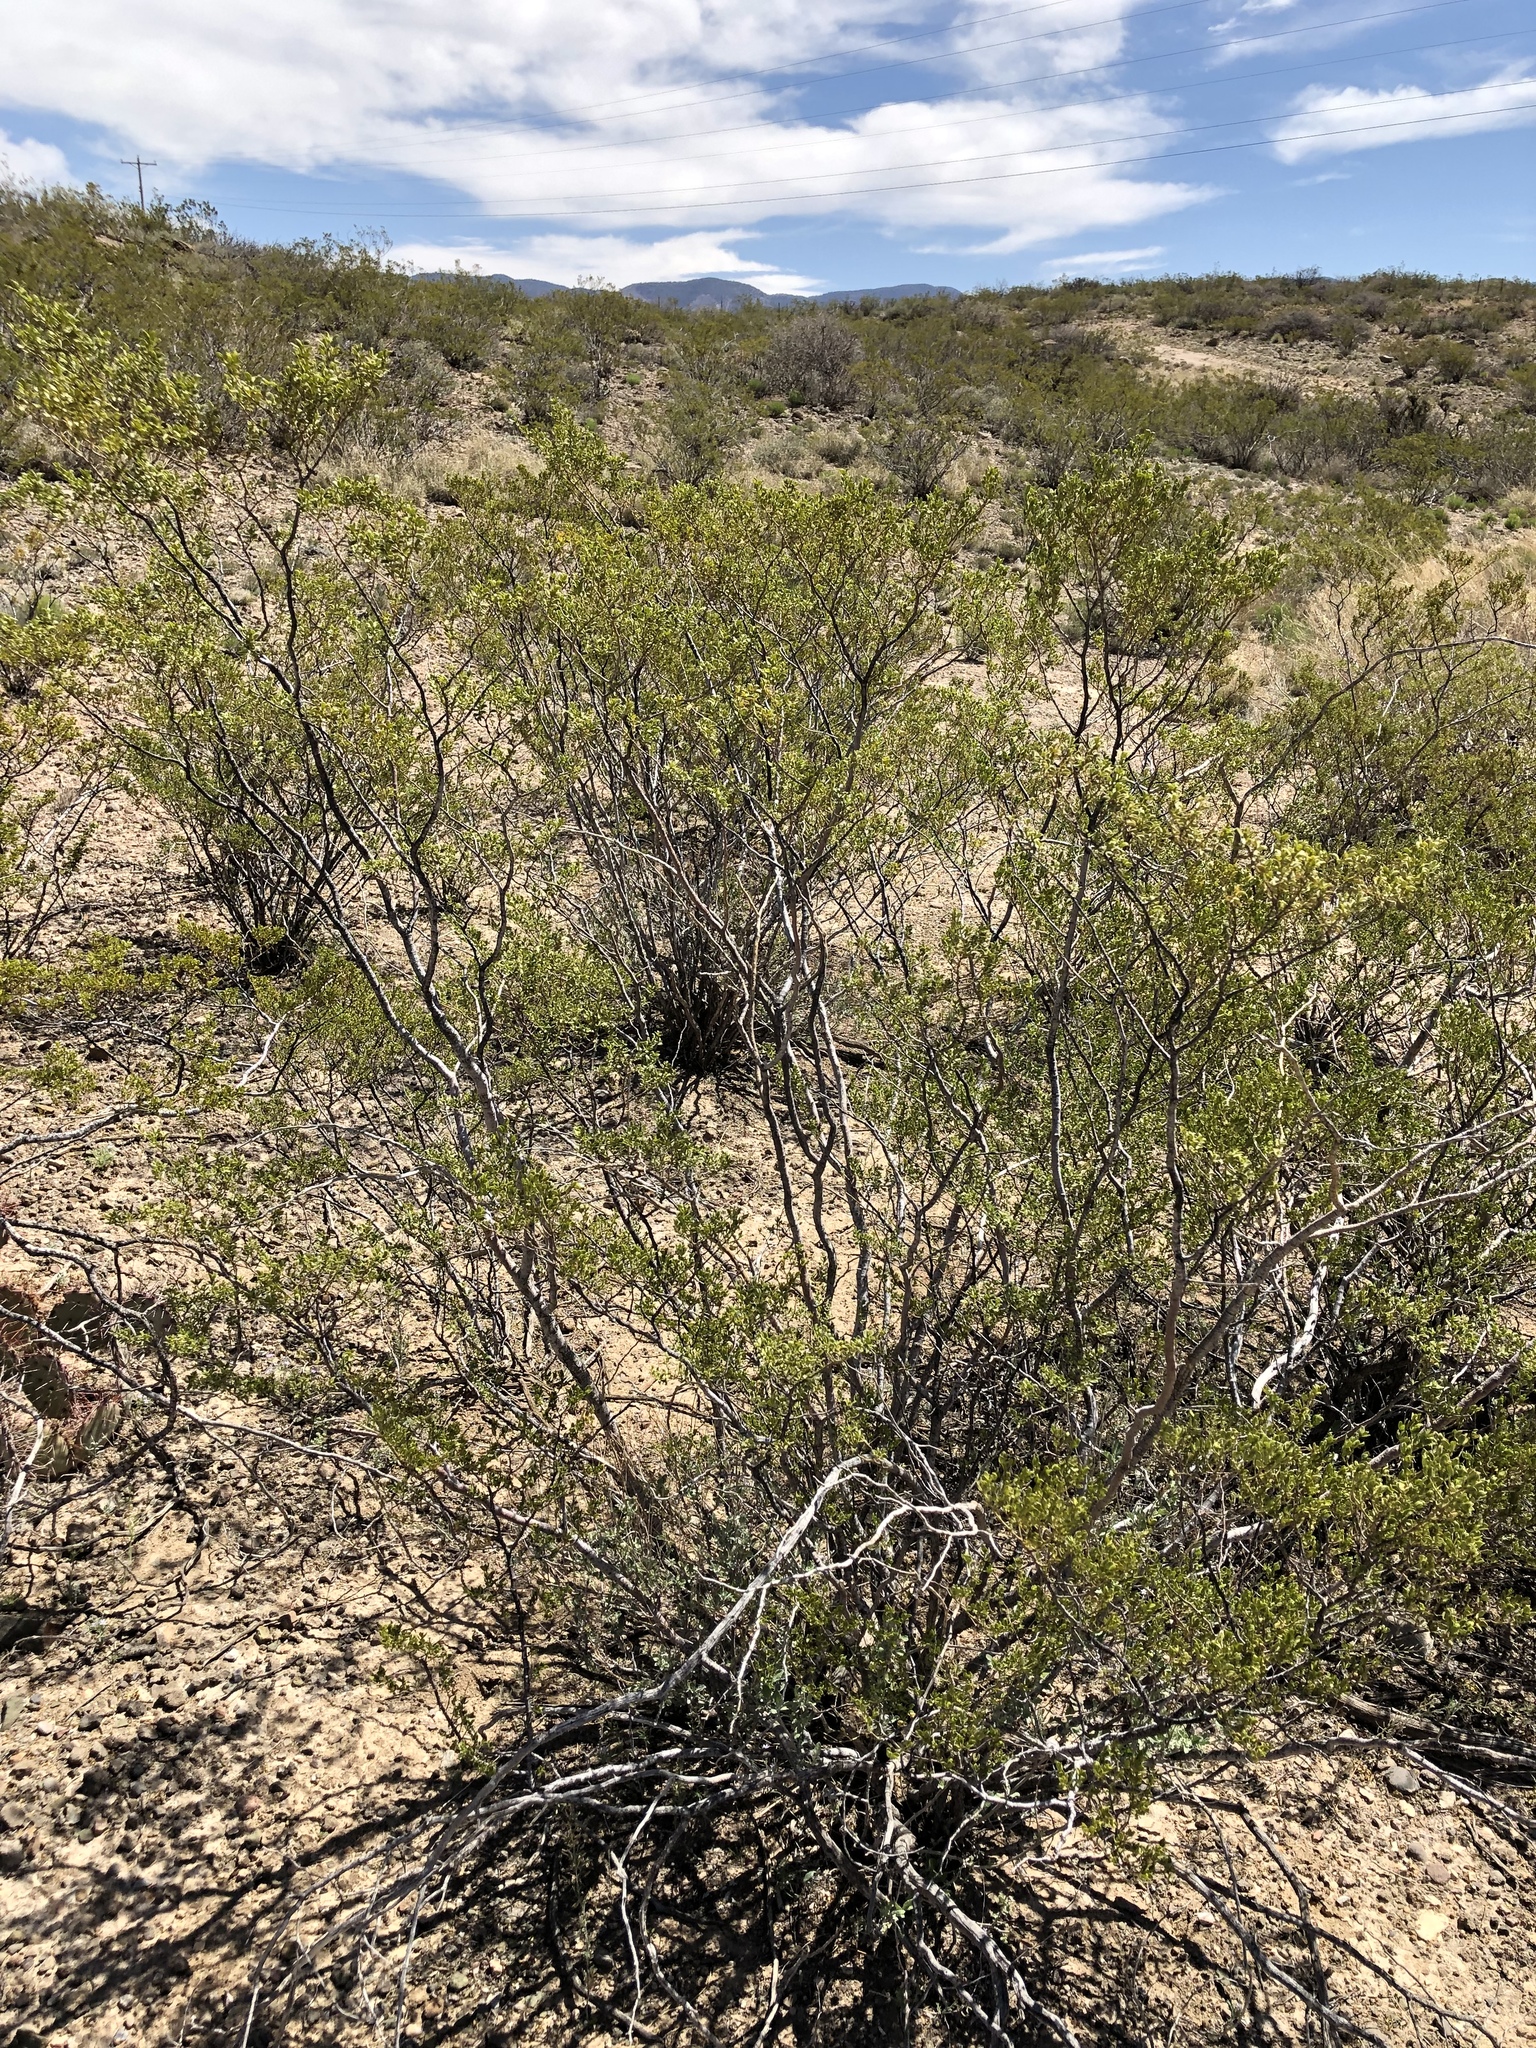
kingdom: Plantae
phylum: Tracheophyta
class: Magnoliopsida
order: Zygophyllales
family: Zygophyllaceae
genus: Larrea
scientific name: Larrea tridentata
